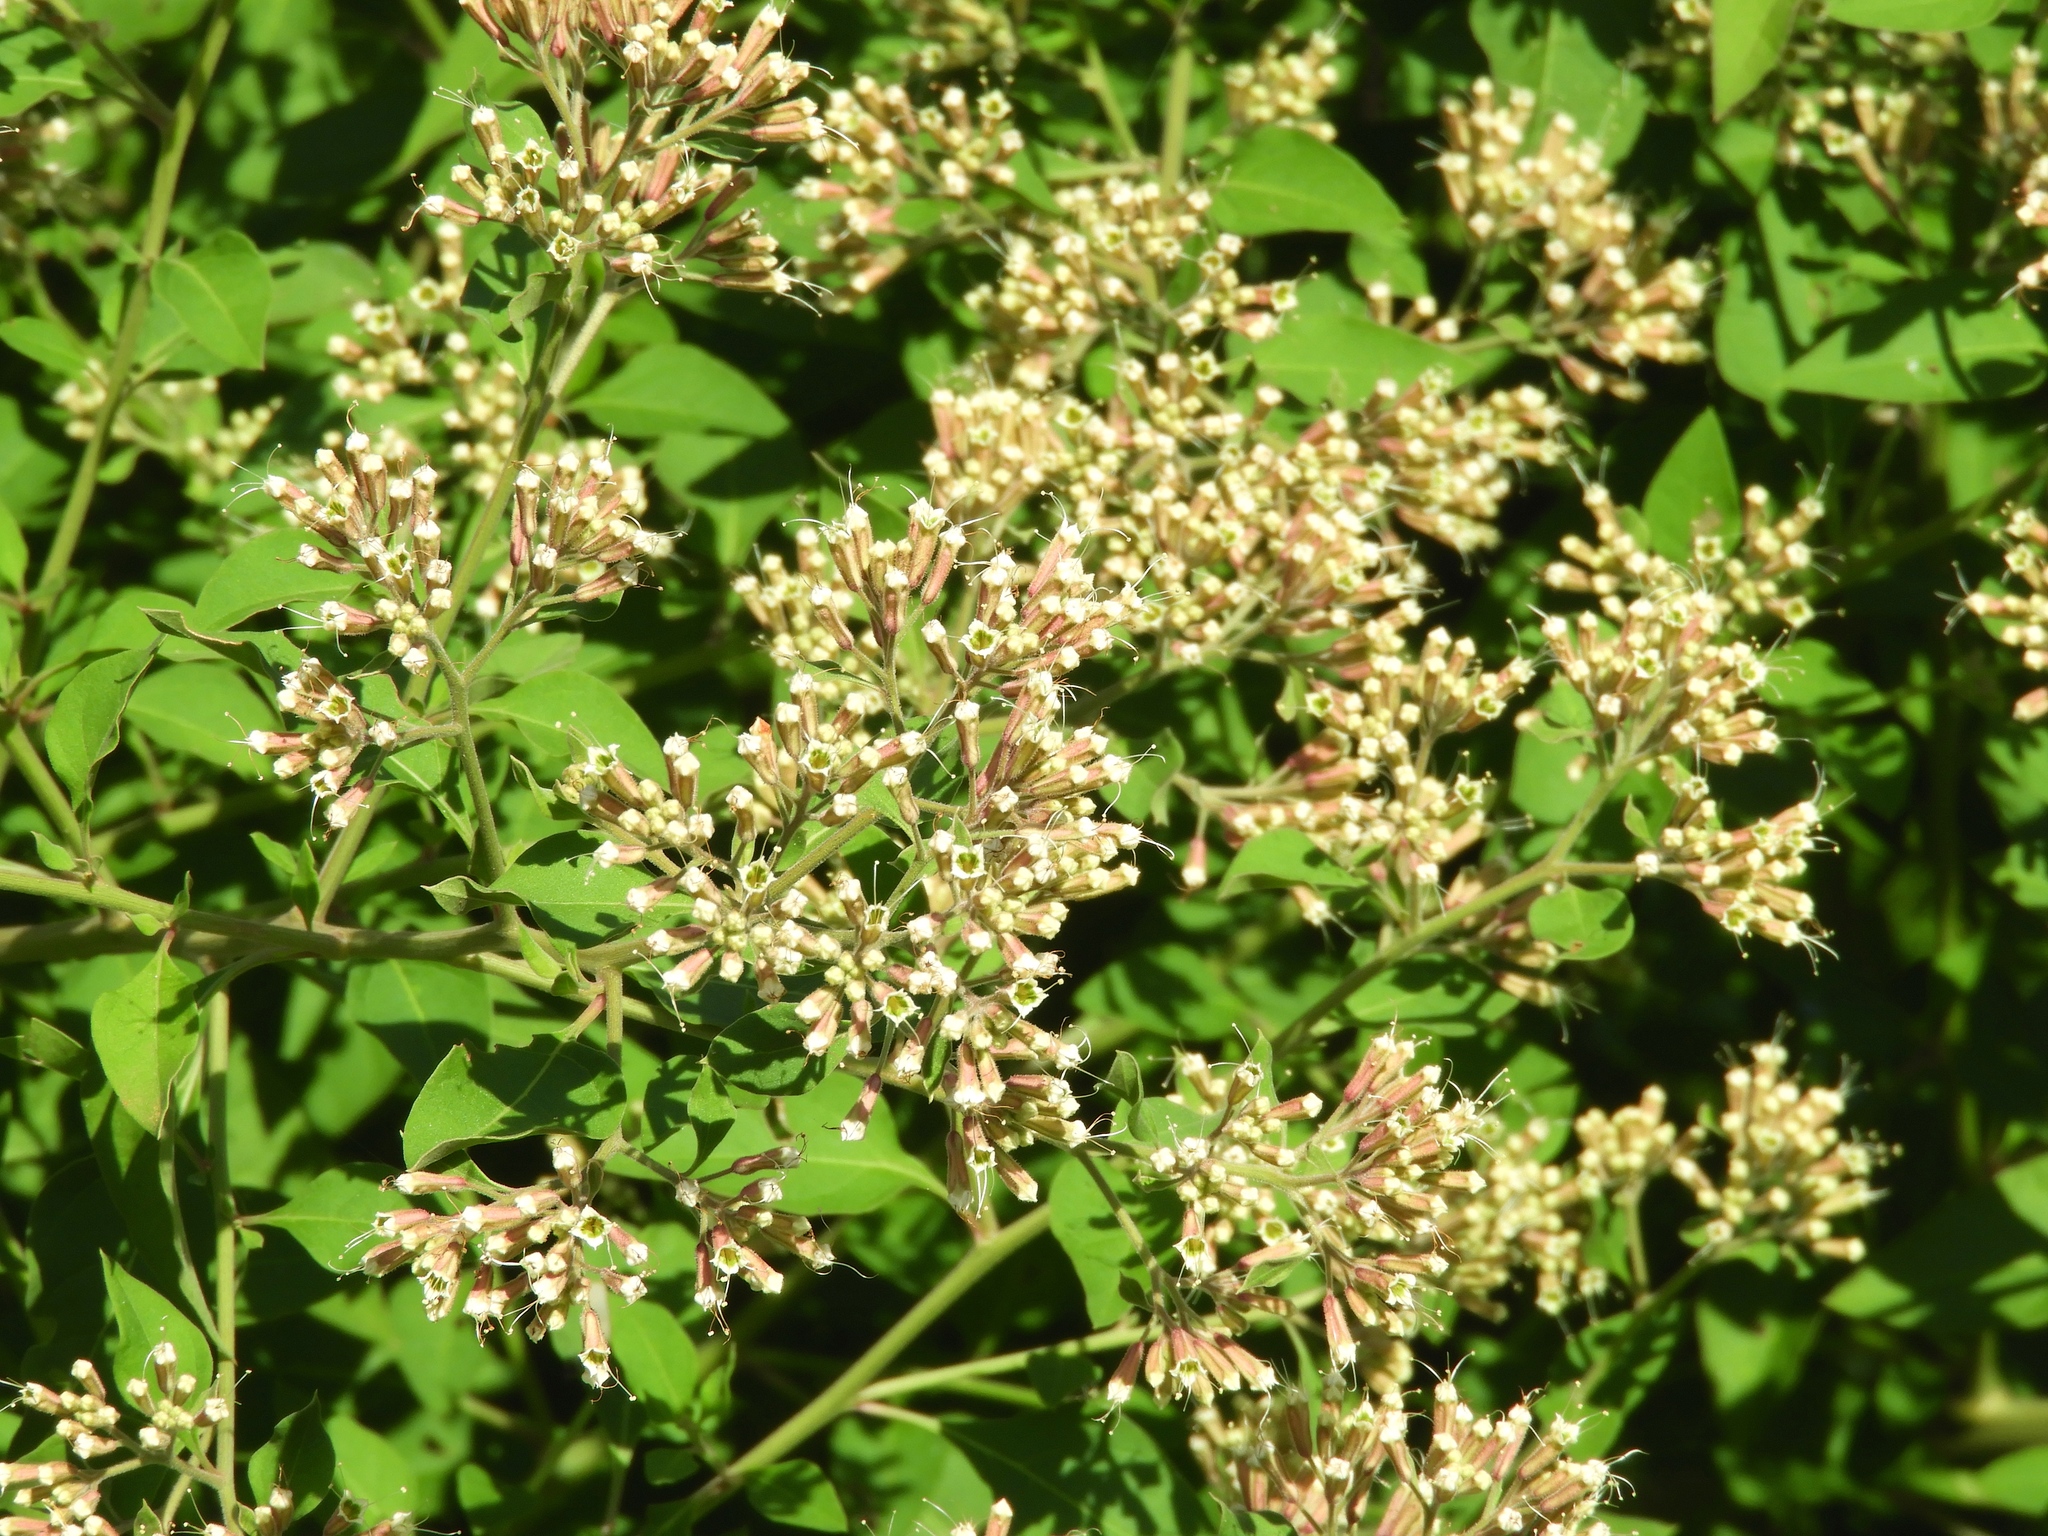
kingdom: Plantae
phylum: Tracheophyta
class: Magnoliopsida
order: Caryophyllales
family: Nyctaginaceae
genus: Salpianthus
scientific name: Salpianthus arenarius
